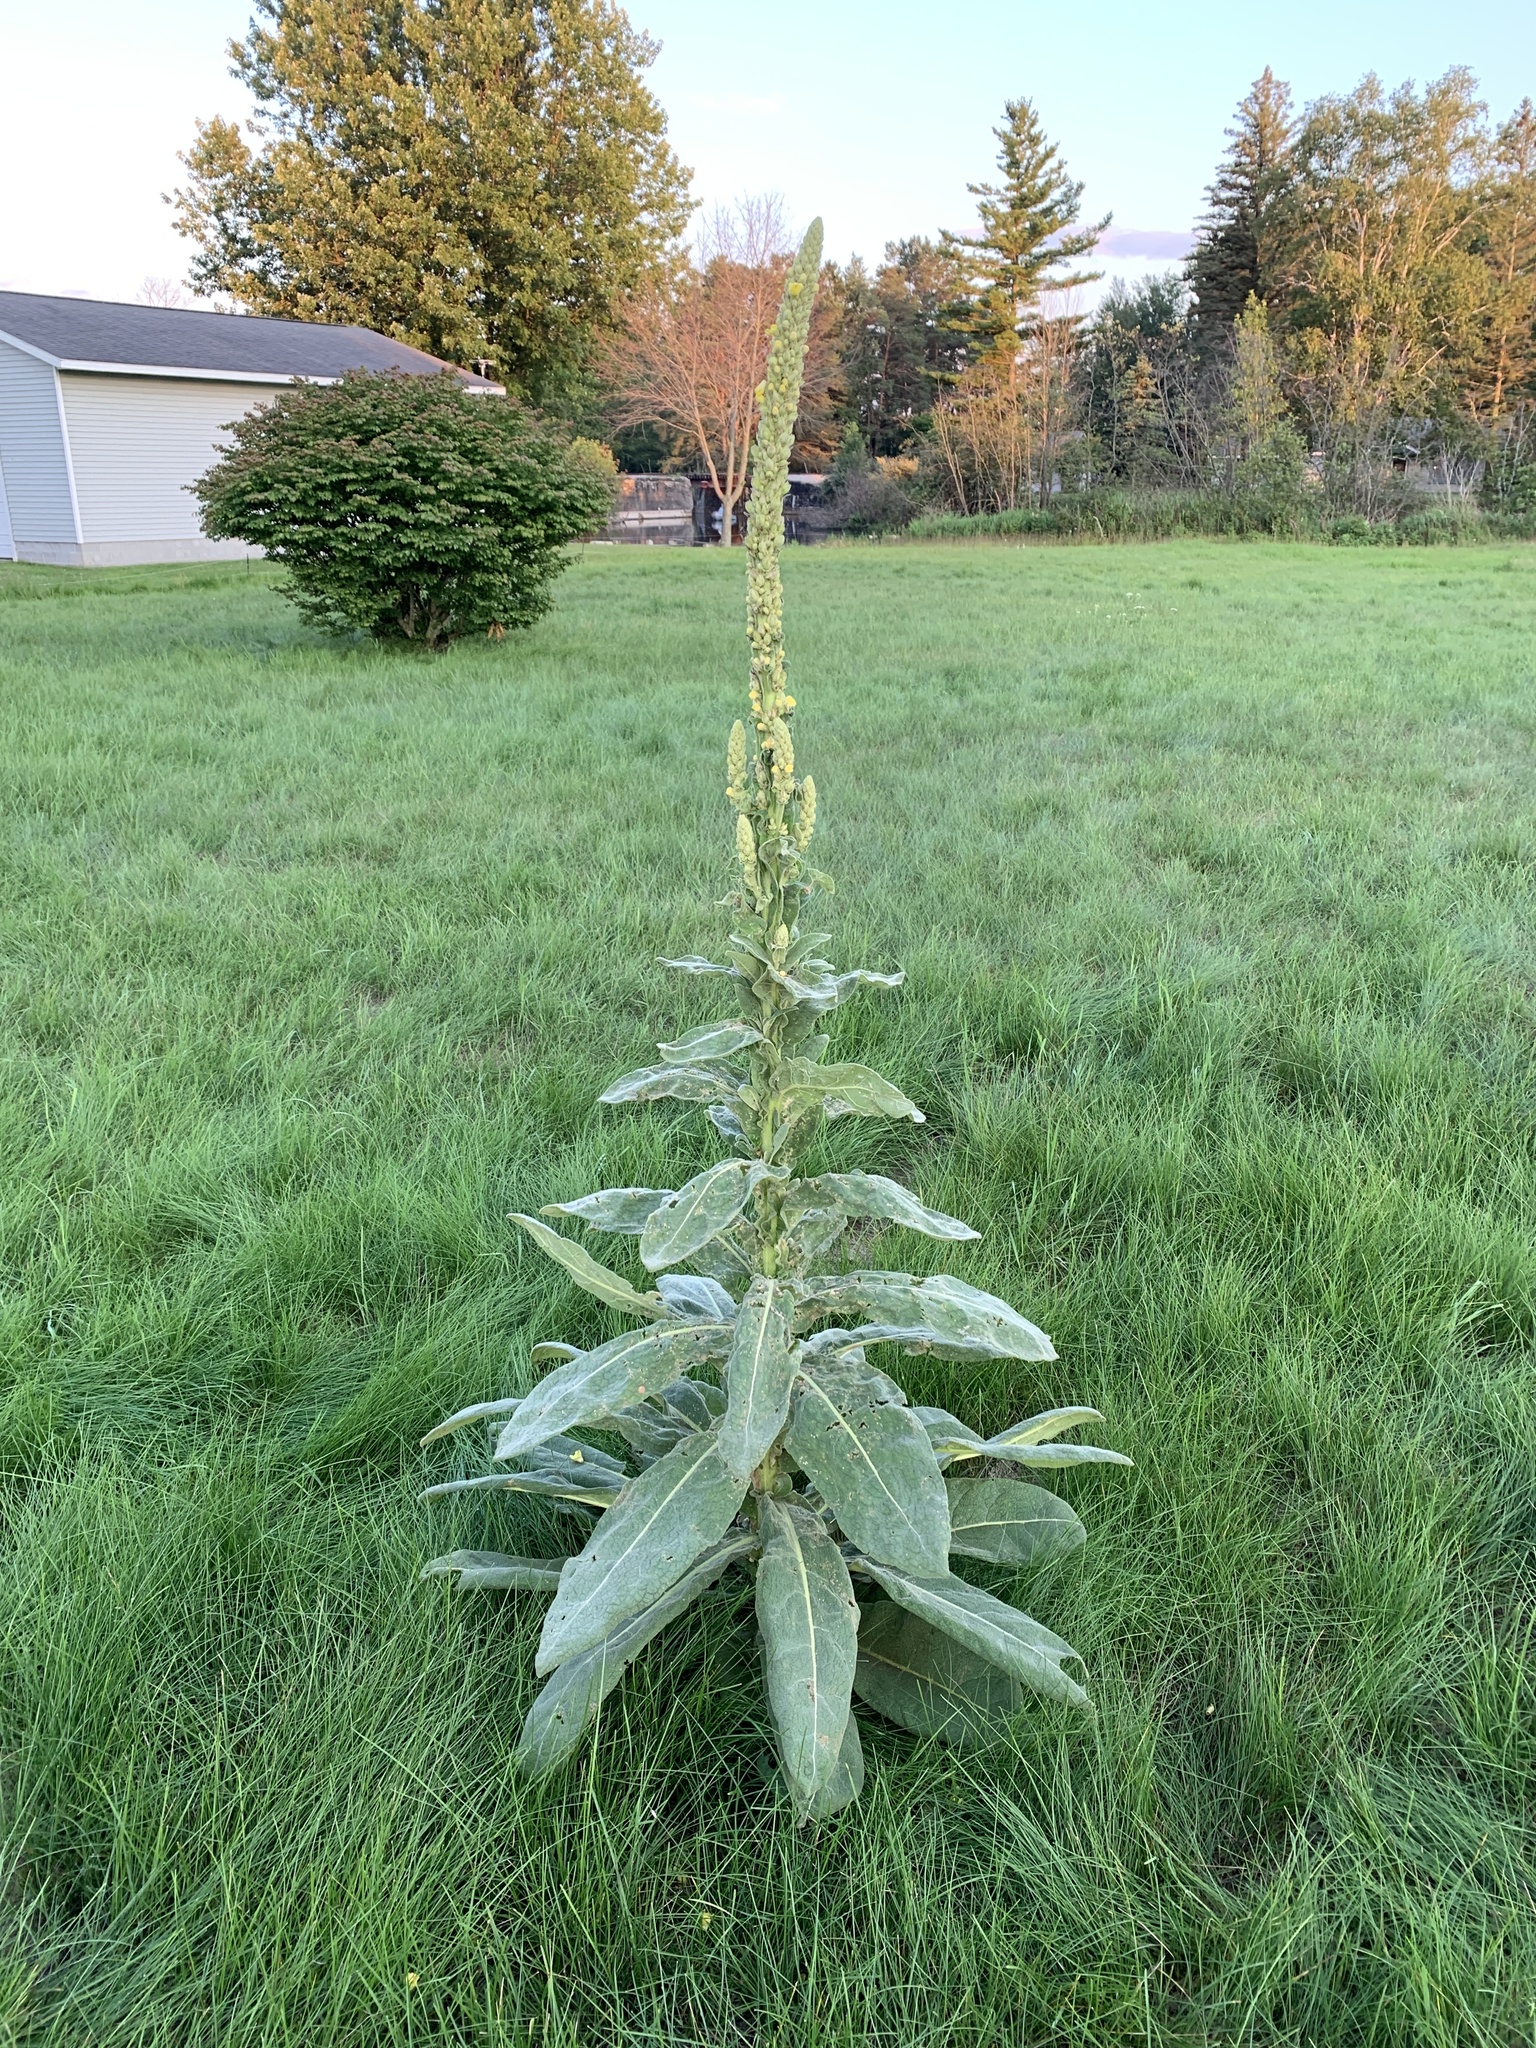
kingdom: Plantae
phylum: Tracheophyta
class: Magnoliopsida
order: Lamiales
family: Scrophulariaceae
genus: Verbascum
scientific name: Verbascum thapsus
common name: Common mullein
